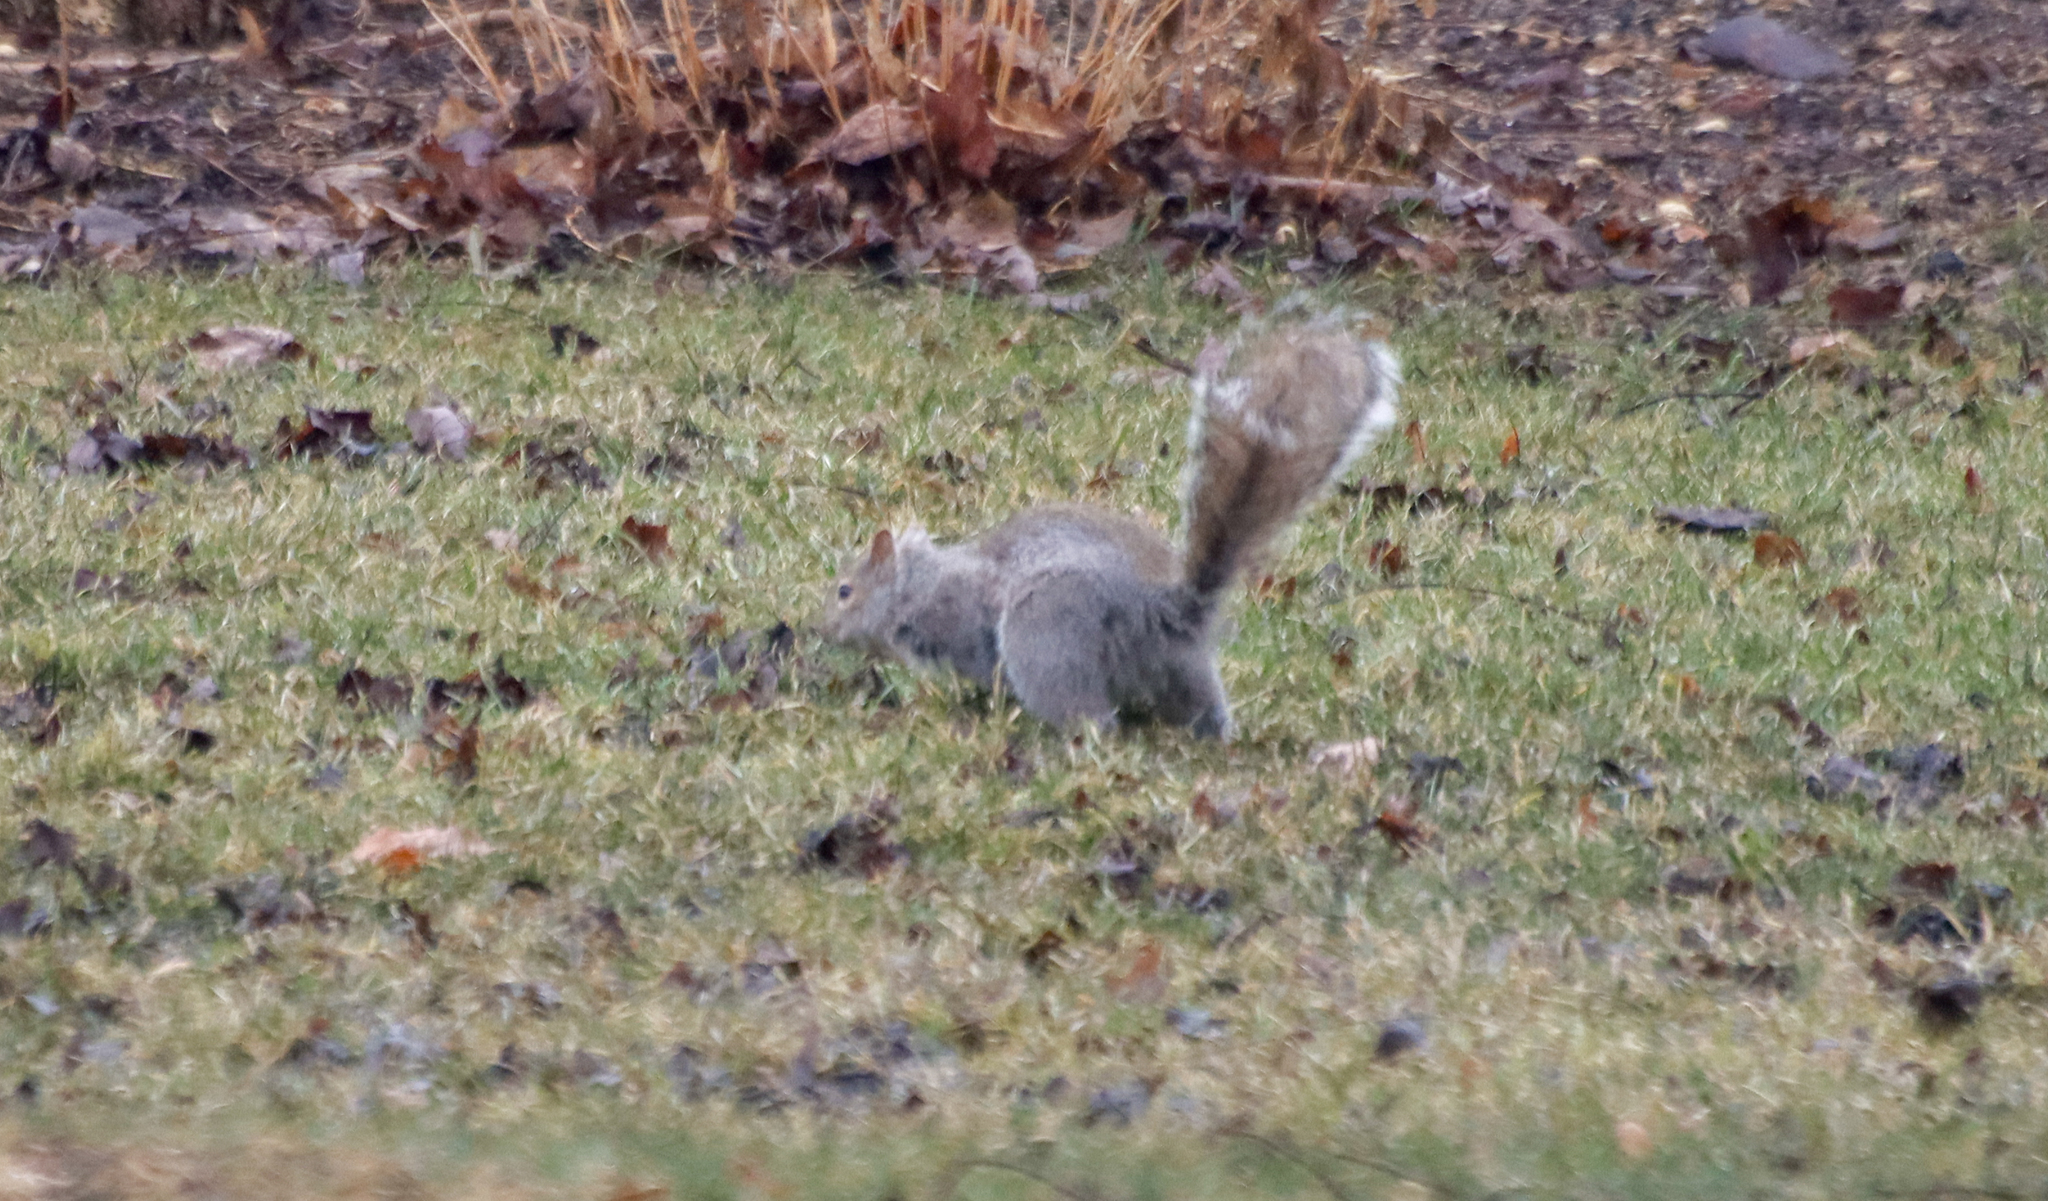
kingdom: Animalia
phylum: Chordata
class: Mammalia
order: Rodentia
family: Sciuridae
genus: Sciurus
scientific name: Sciurus carolinensis
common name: Eastern gray squirrel
